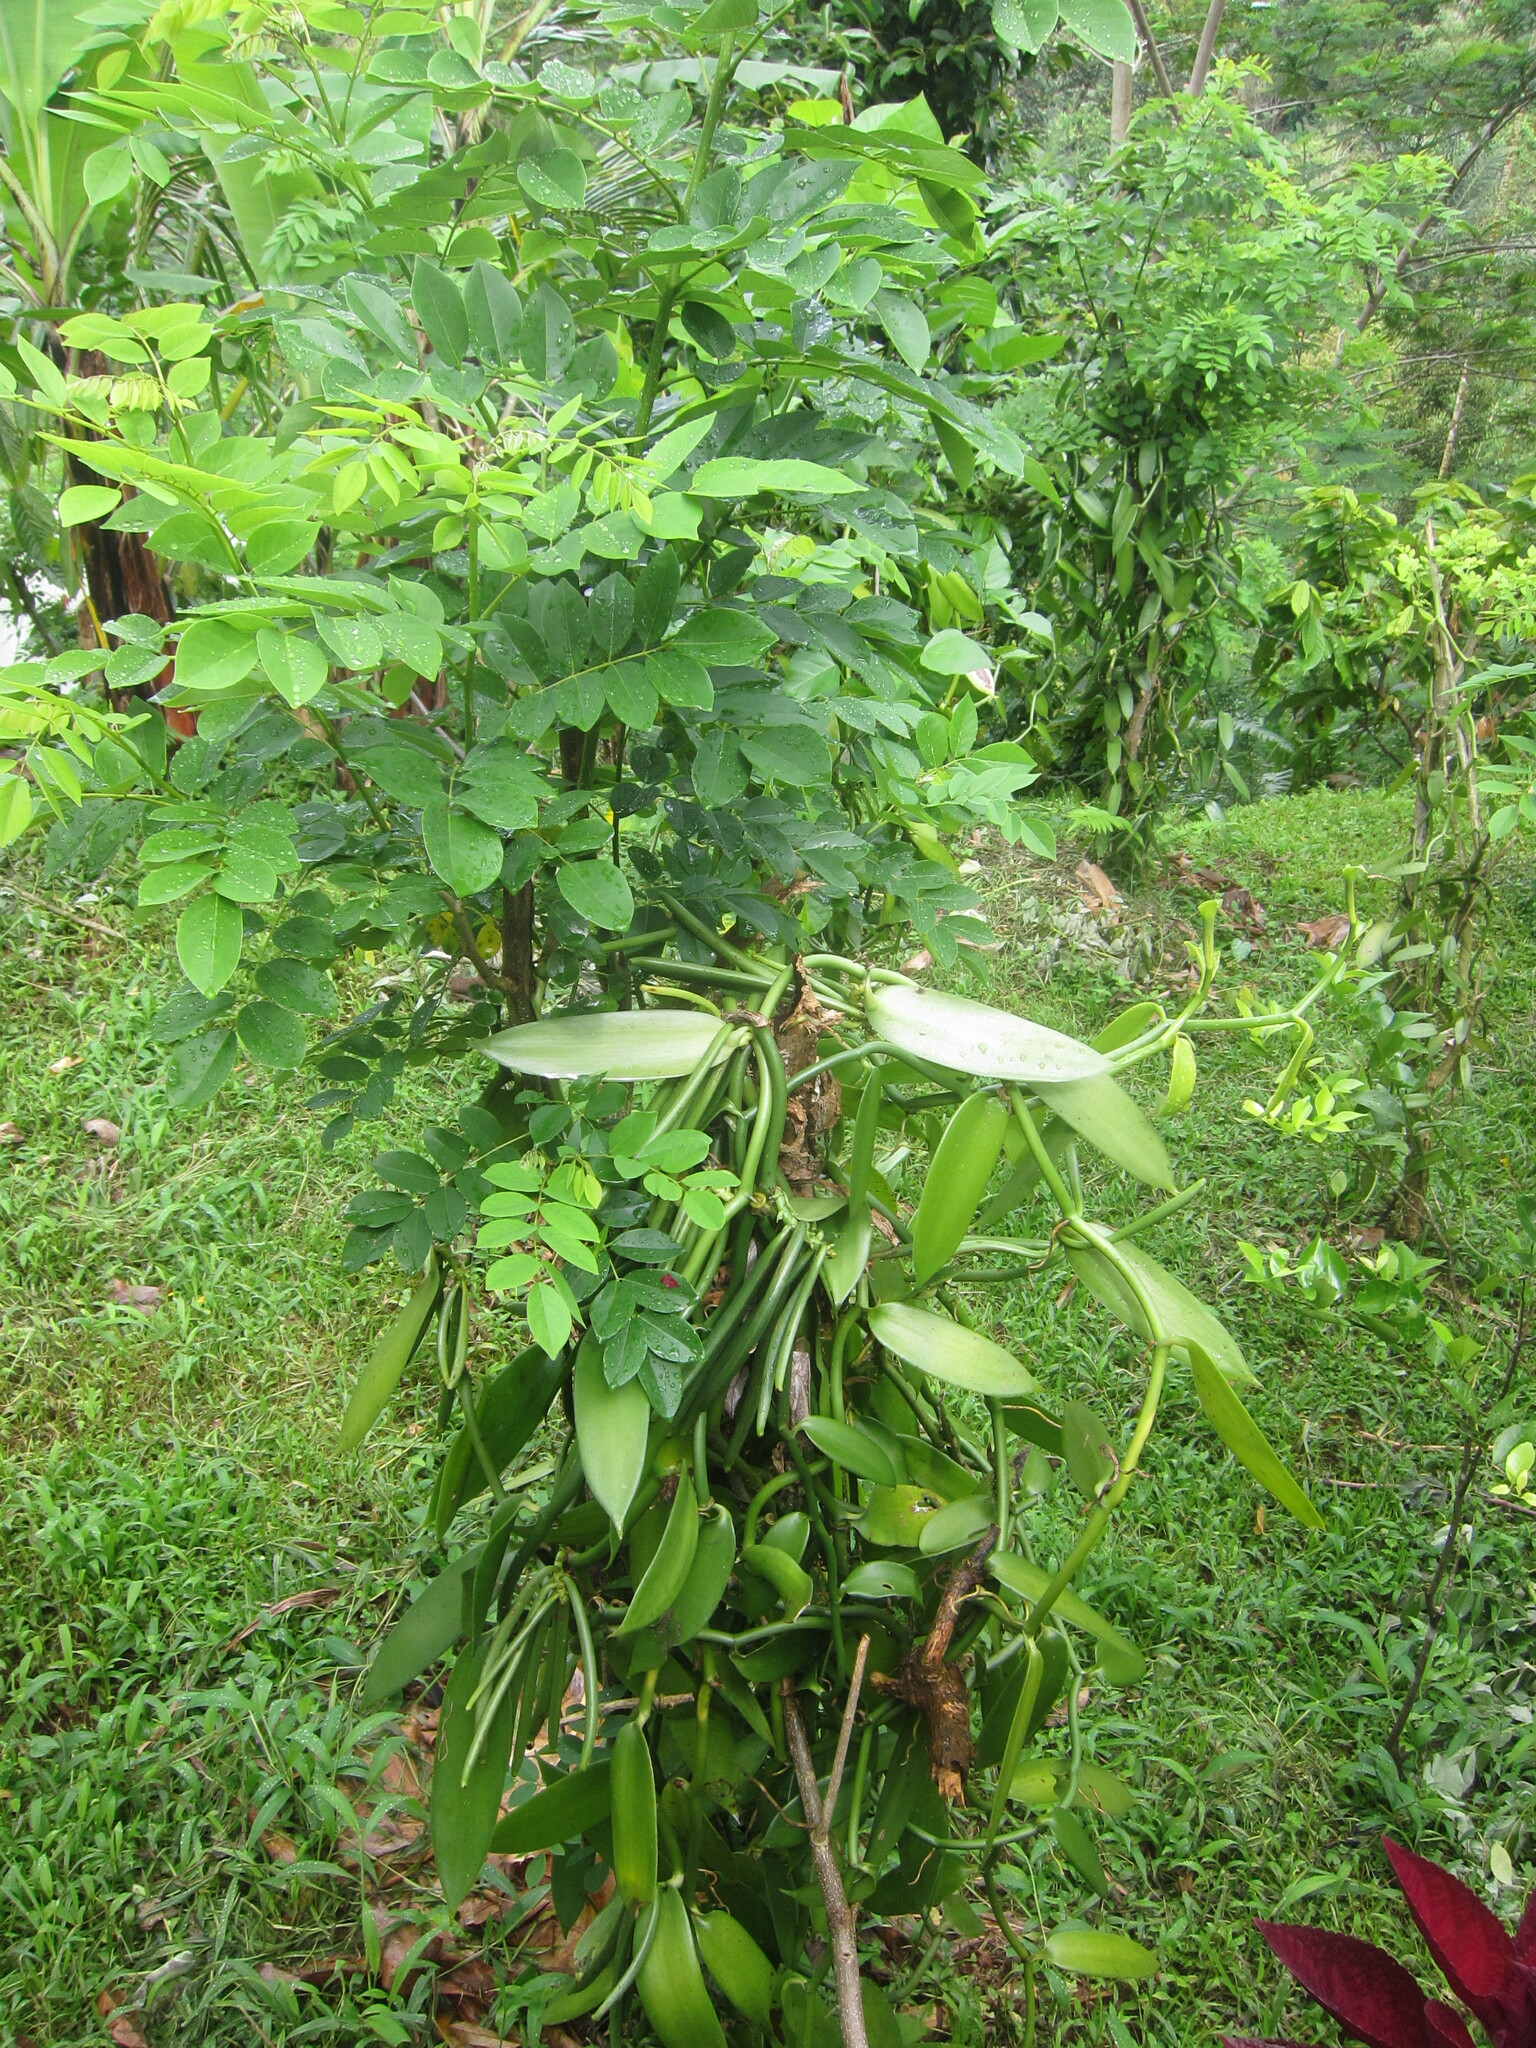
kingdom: Plantae
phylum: Tracheophyta
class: Liliopsida
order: Asparagales
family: Orchidaceae
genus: Vanilla
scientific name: Vanilla planifolia
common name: Vanilla
